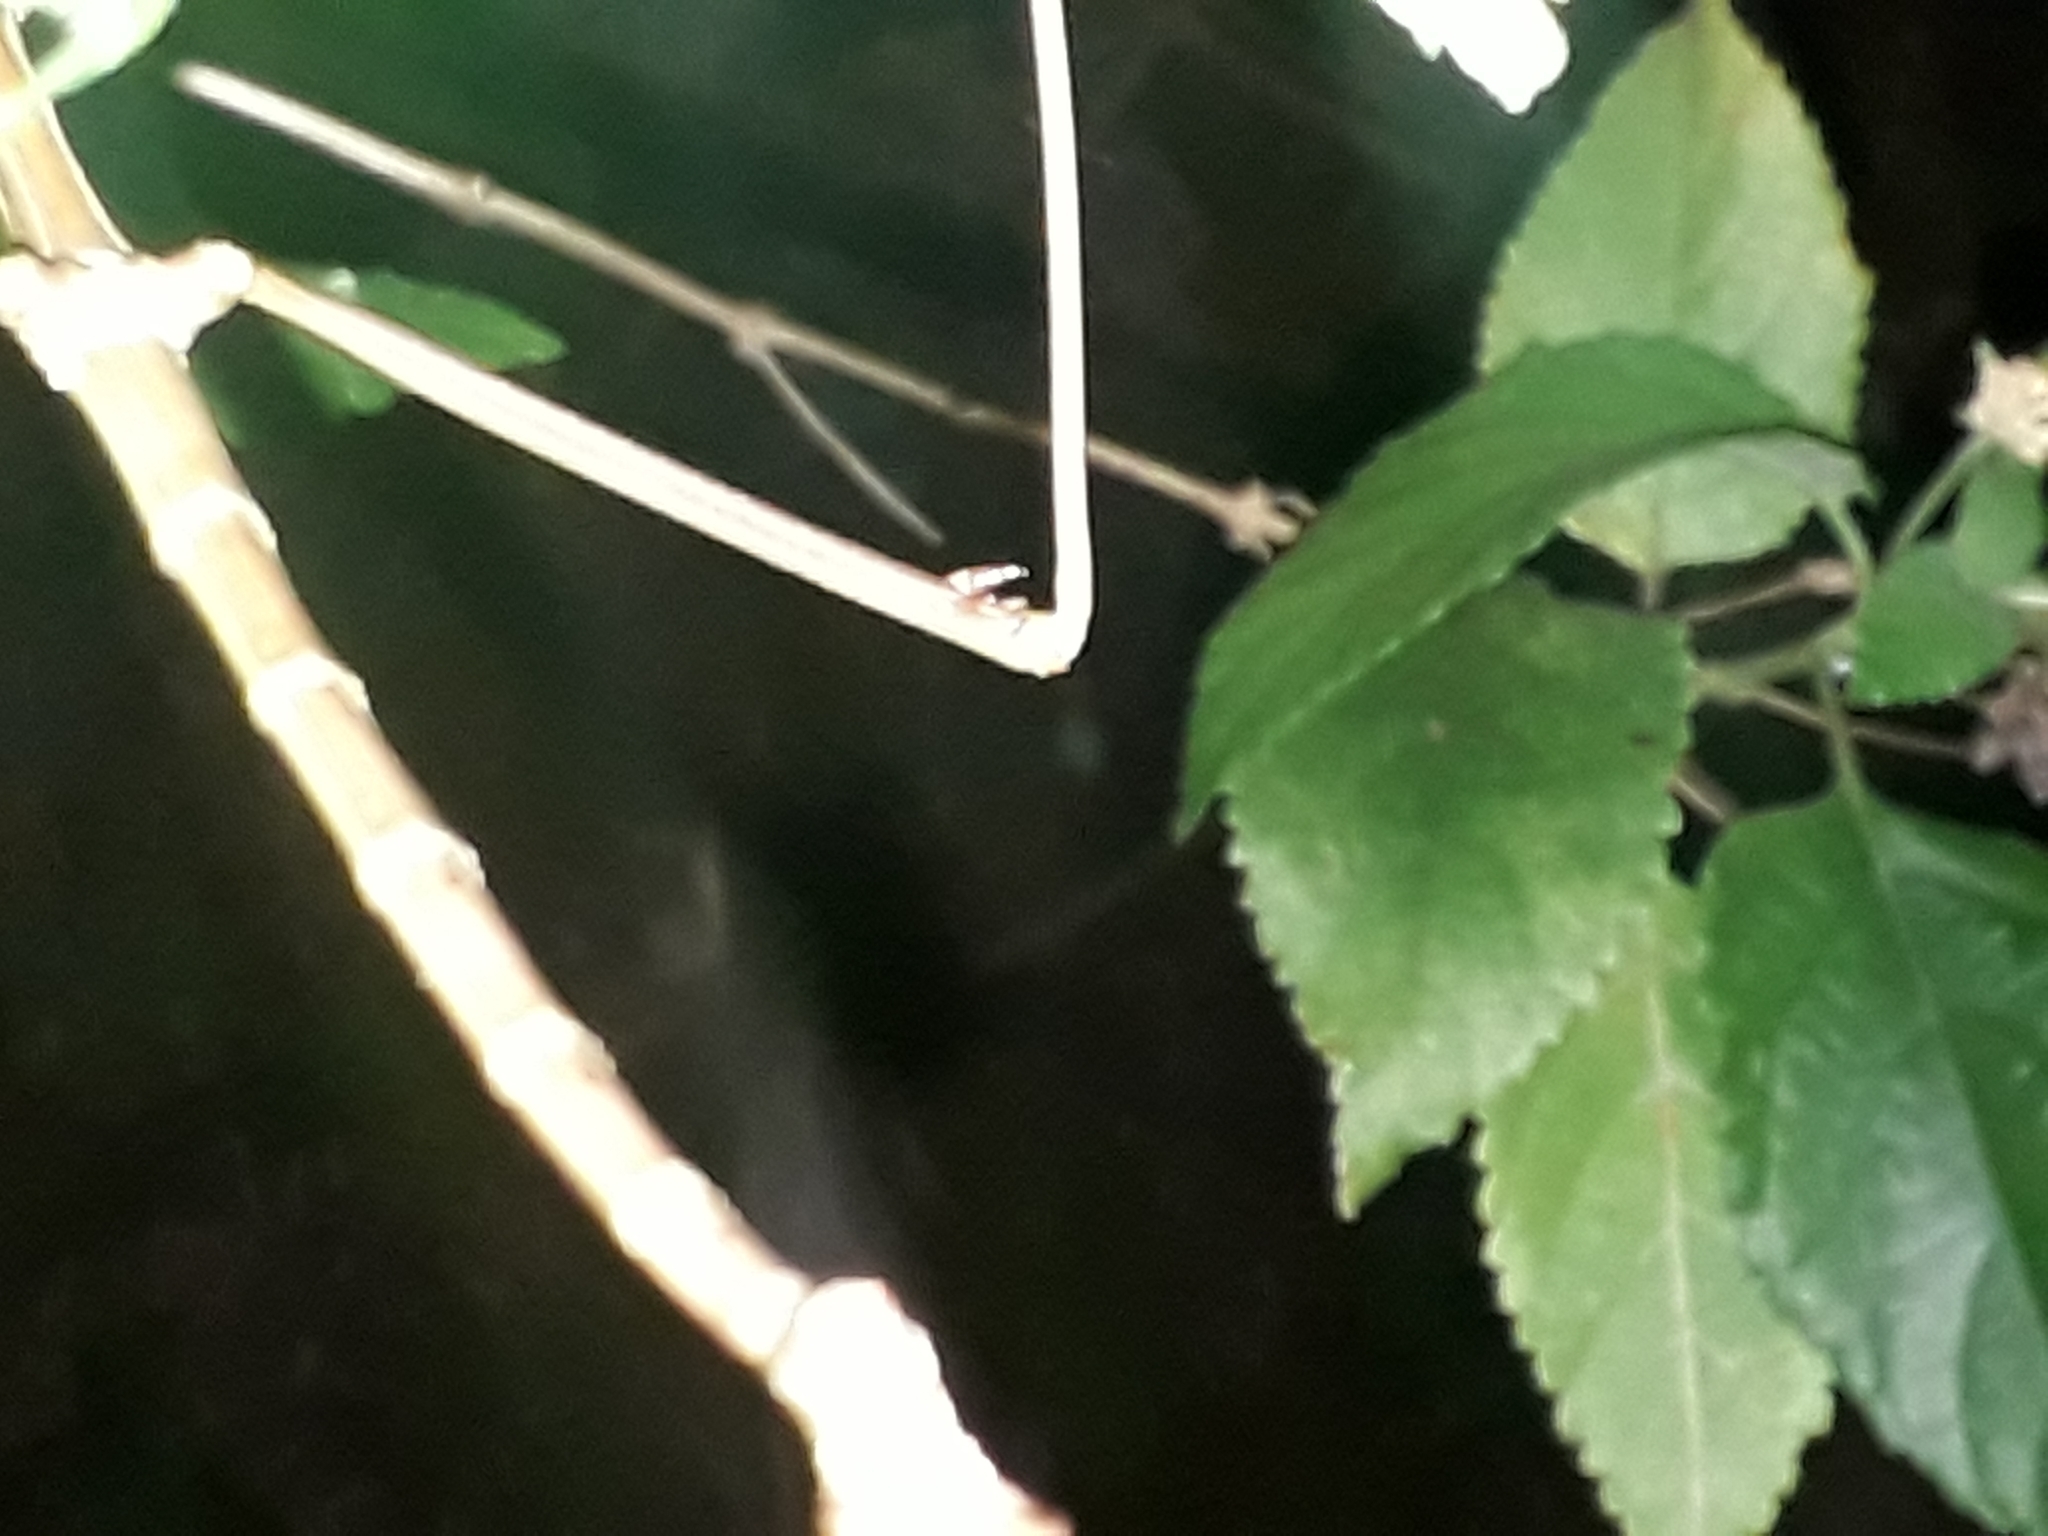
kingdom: Animalia
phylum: Arthropoda
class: Insecta
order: Phasmida
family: Diapheromeridae
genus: Bacteria
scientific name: Bacteria ferula
